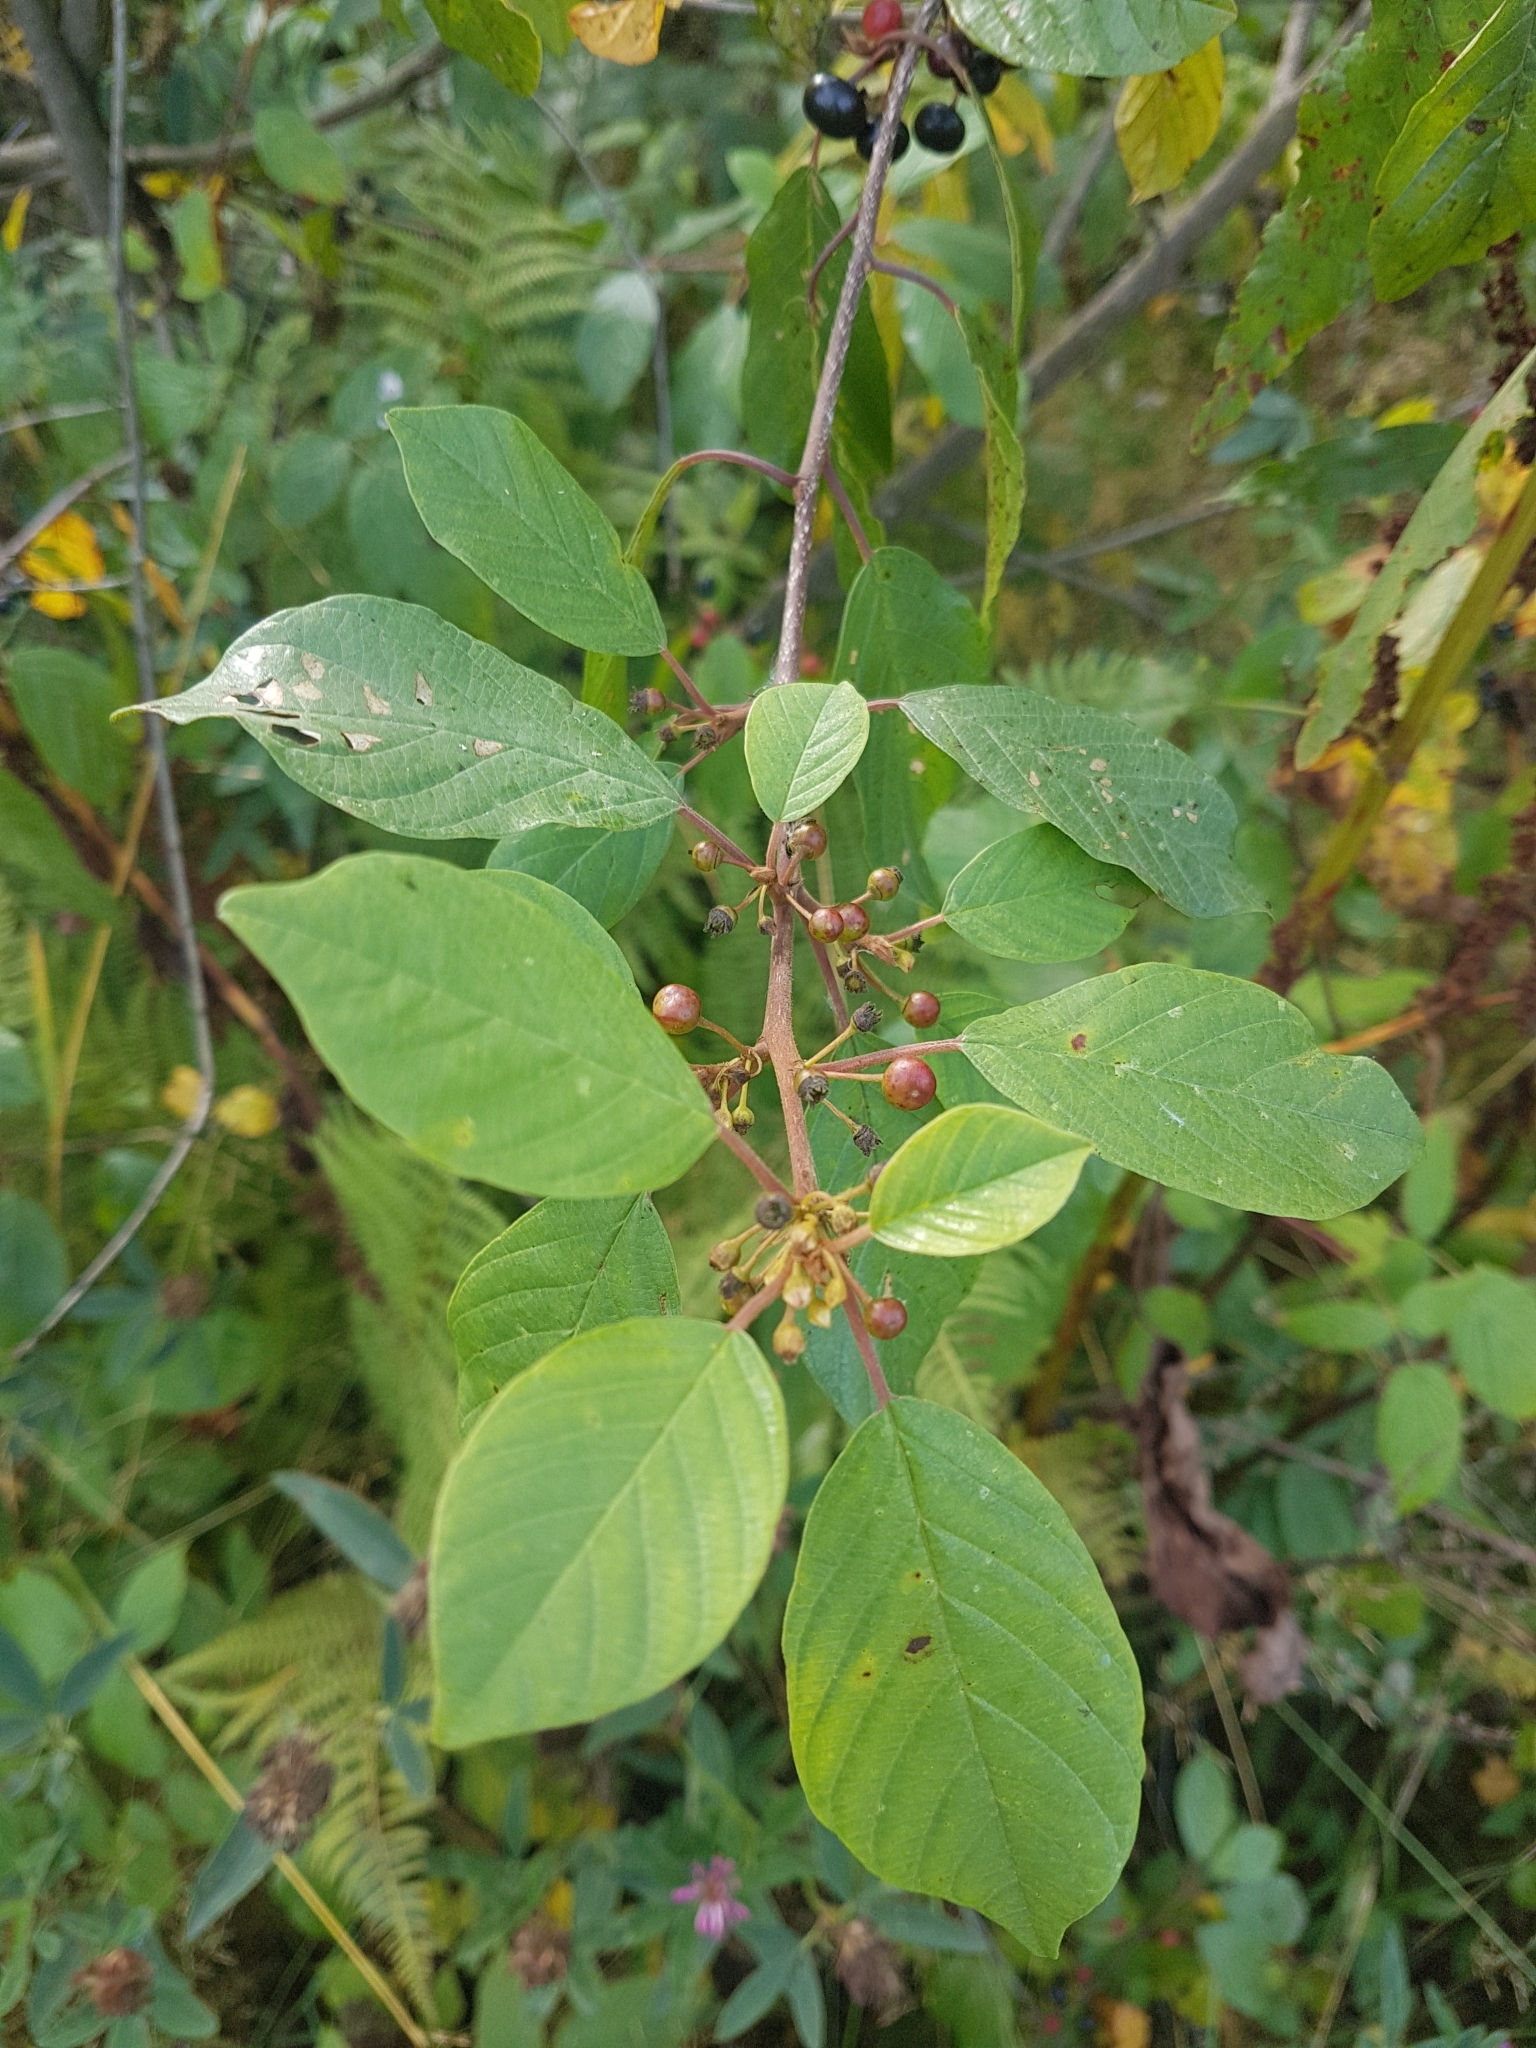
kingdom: Plantae
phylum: Tracheophyta
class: Magnoliopsida
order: Rosales
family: Rhamnaceae
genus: Frangula
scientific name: Frangula alnus
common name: Alder buckthorn
